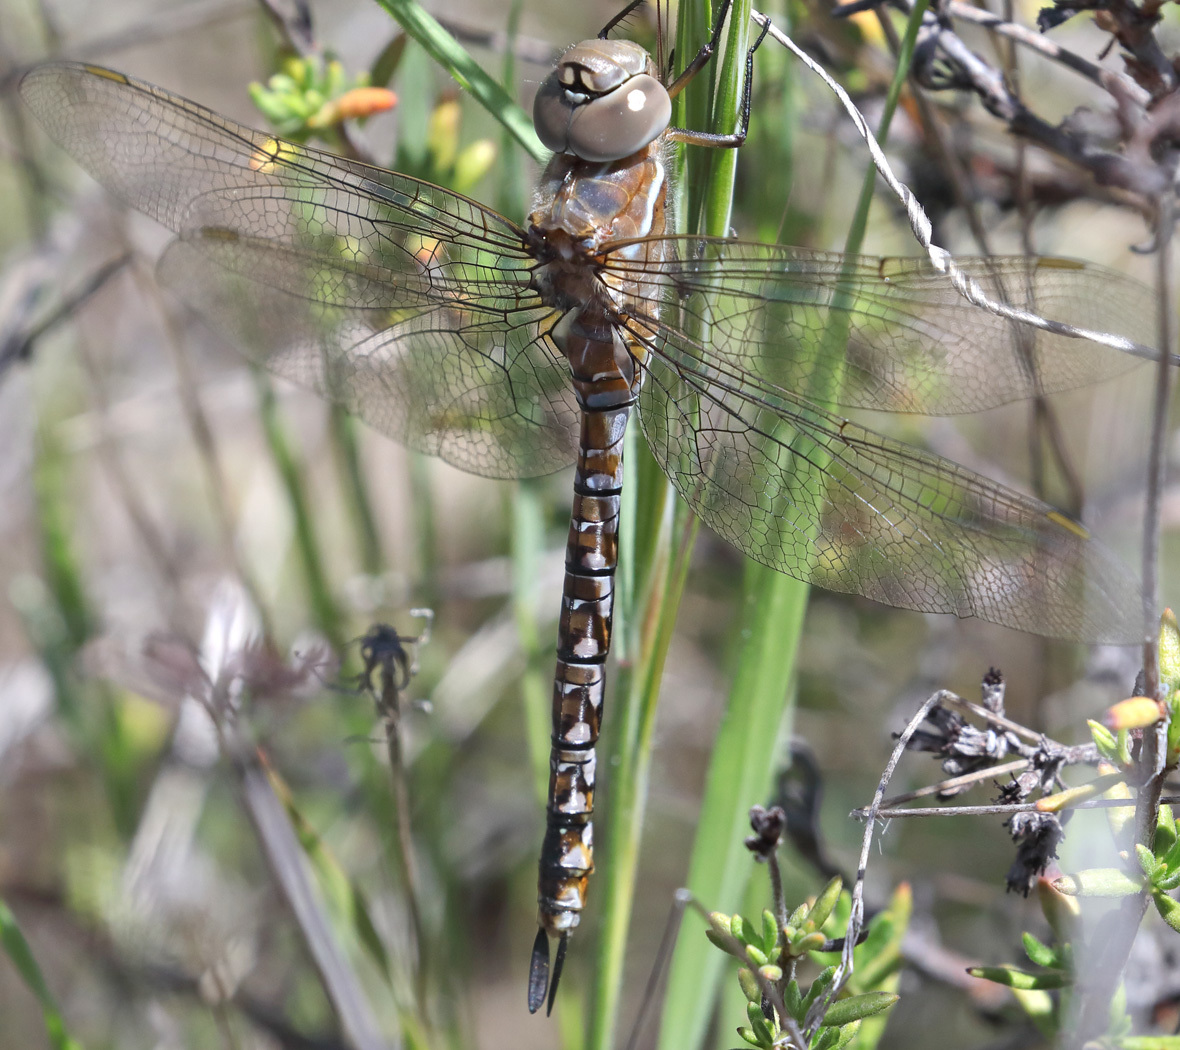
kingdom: Animalia
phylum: Arthropoda
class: Insecta
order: Odonata
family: Aeshnidae
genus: Rhionaeschna
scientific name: Rhionaeschna multicolor
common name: Blue-eyed darner
